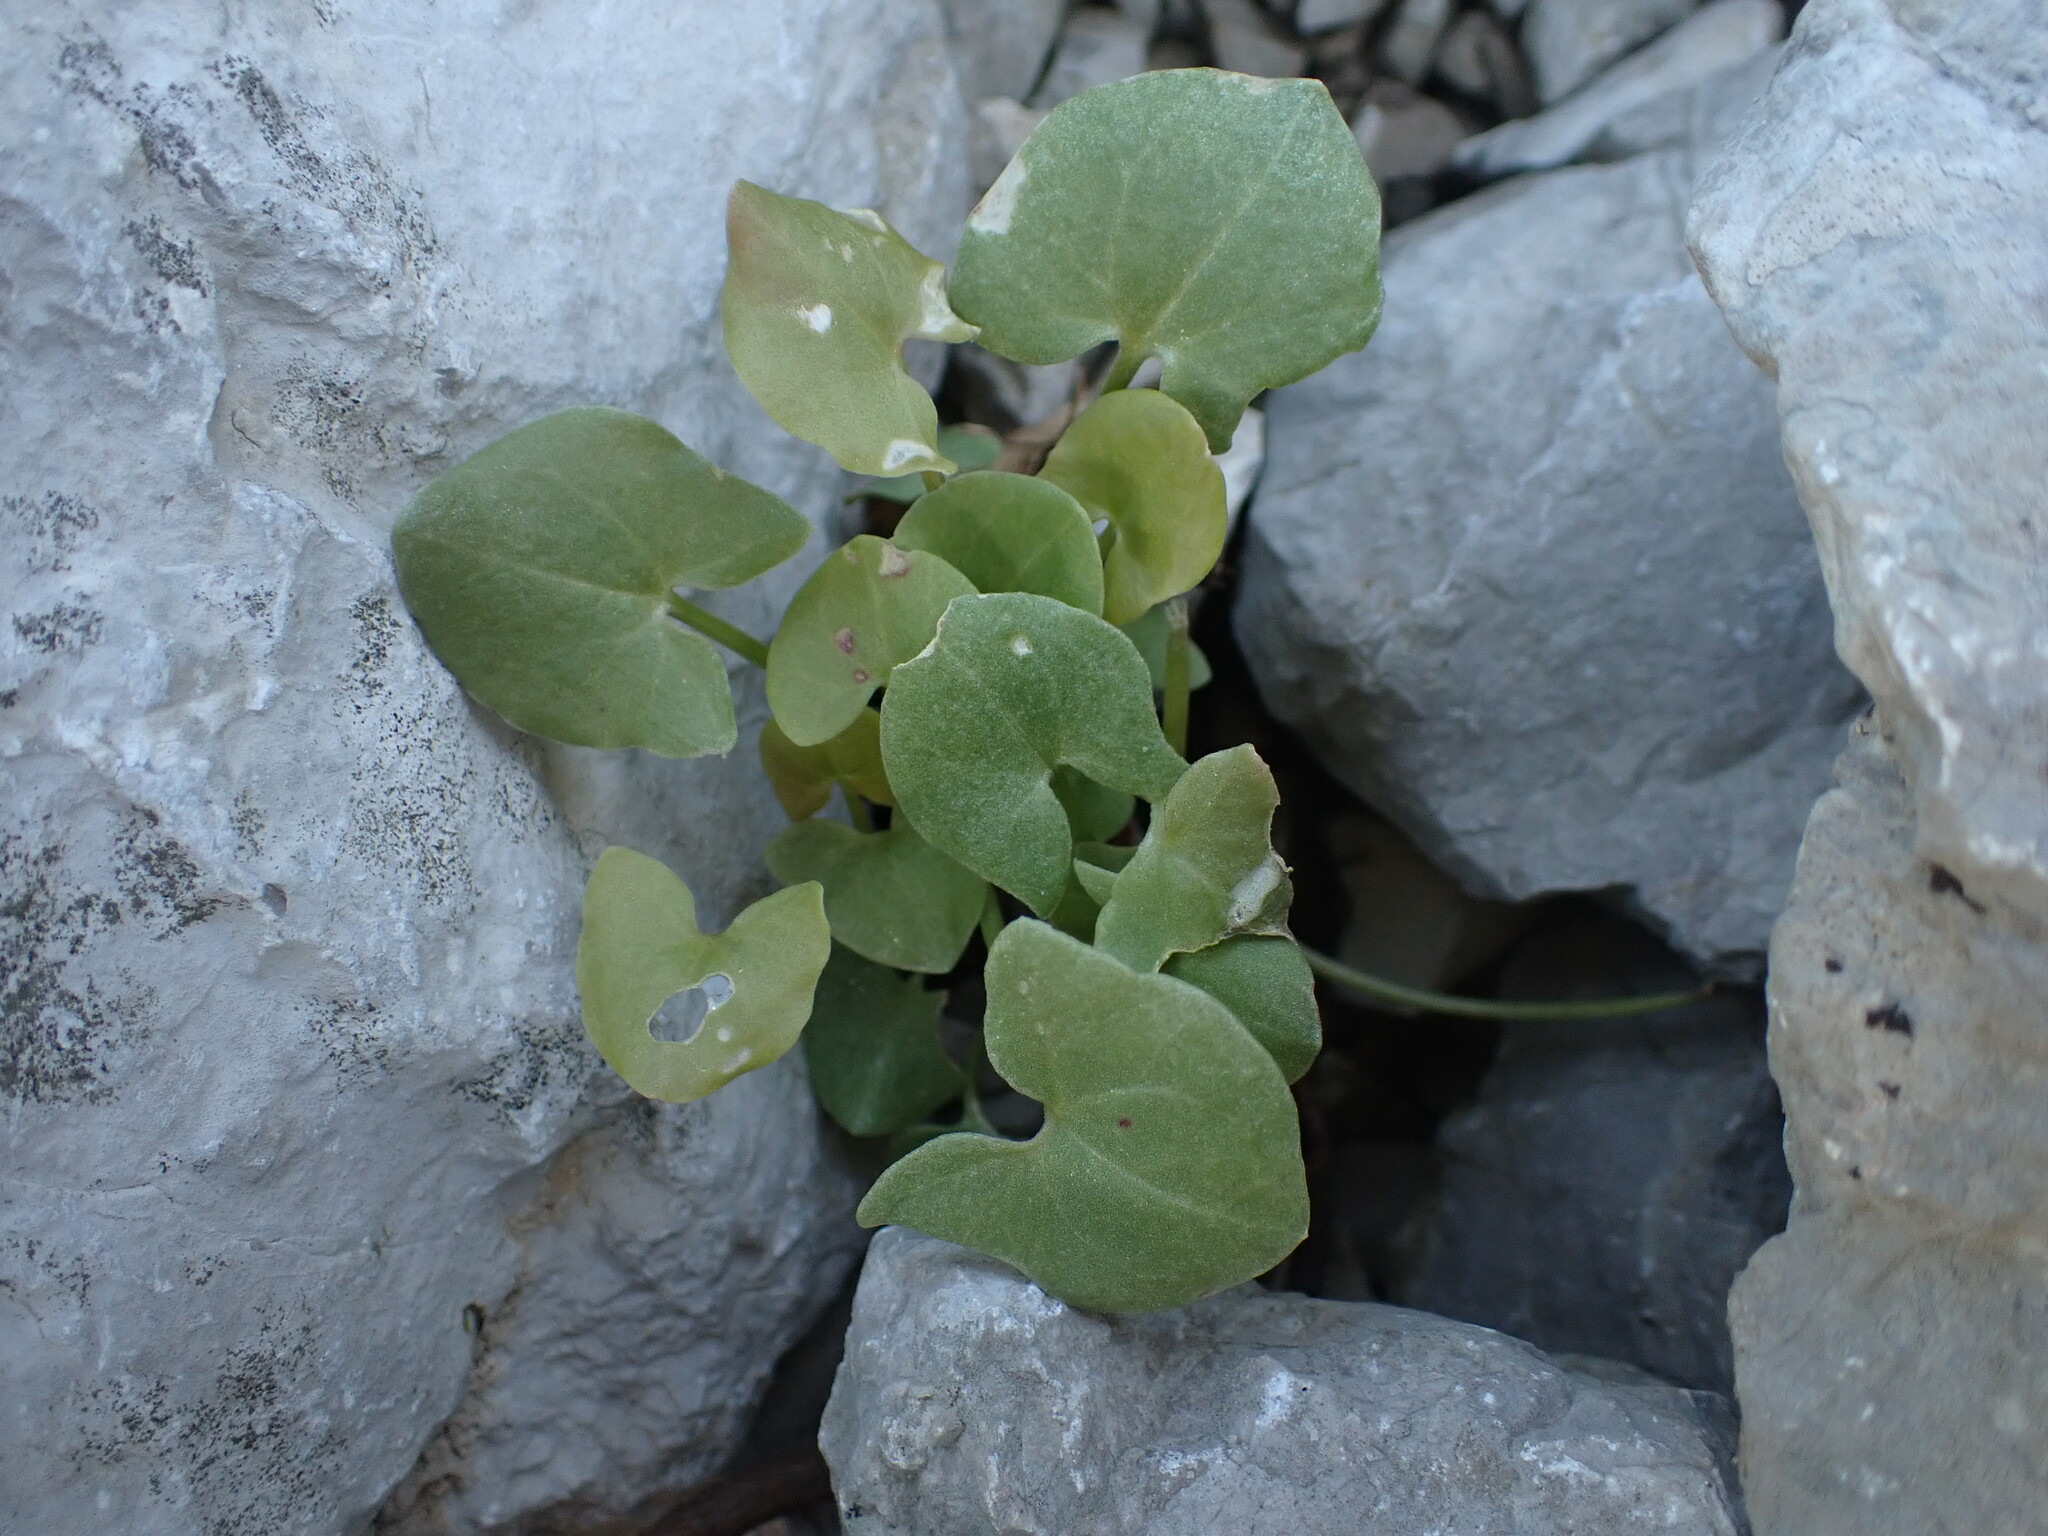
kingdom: Plantae
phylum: Tracheophyta
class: Magnoliopsida
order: Caryophyllales
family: Polygonaceae
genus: Rumex
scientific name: Rumex scutatus
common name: French sorrel
